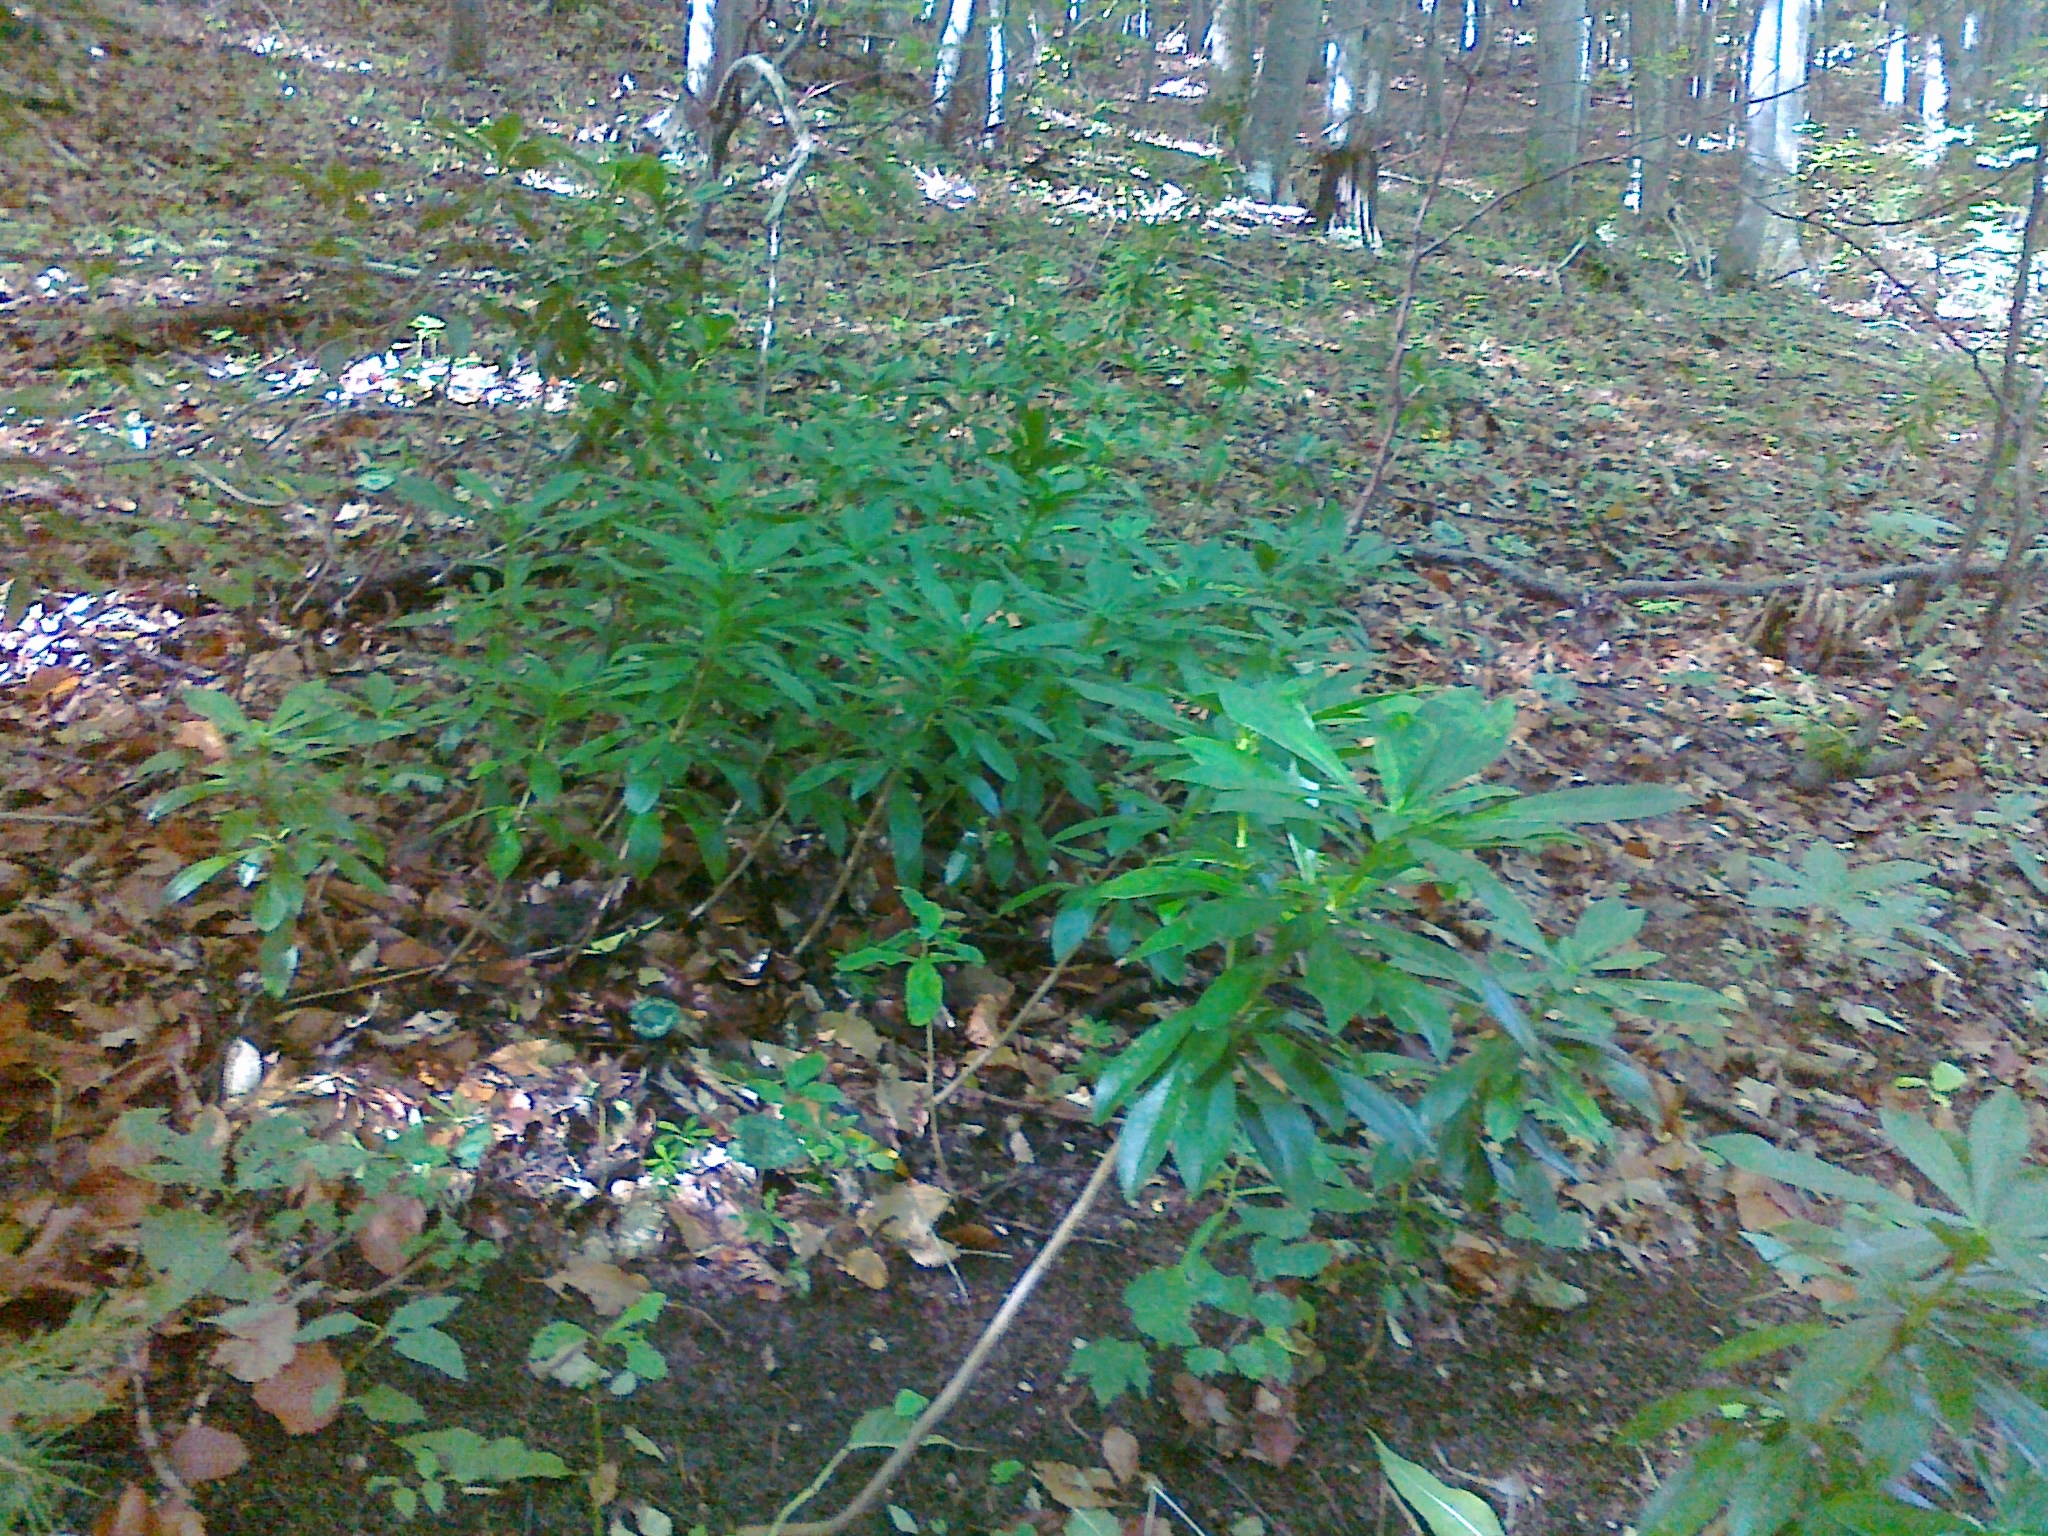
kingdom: Plantae
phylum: Tracheophyta
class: Magnoliopsida
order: Malvales
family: Thymelaeaceae
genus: Daphne
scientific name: Daphne laureola
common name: Spurge-laurel
